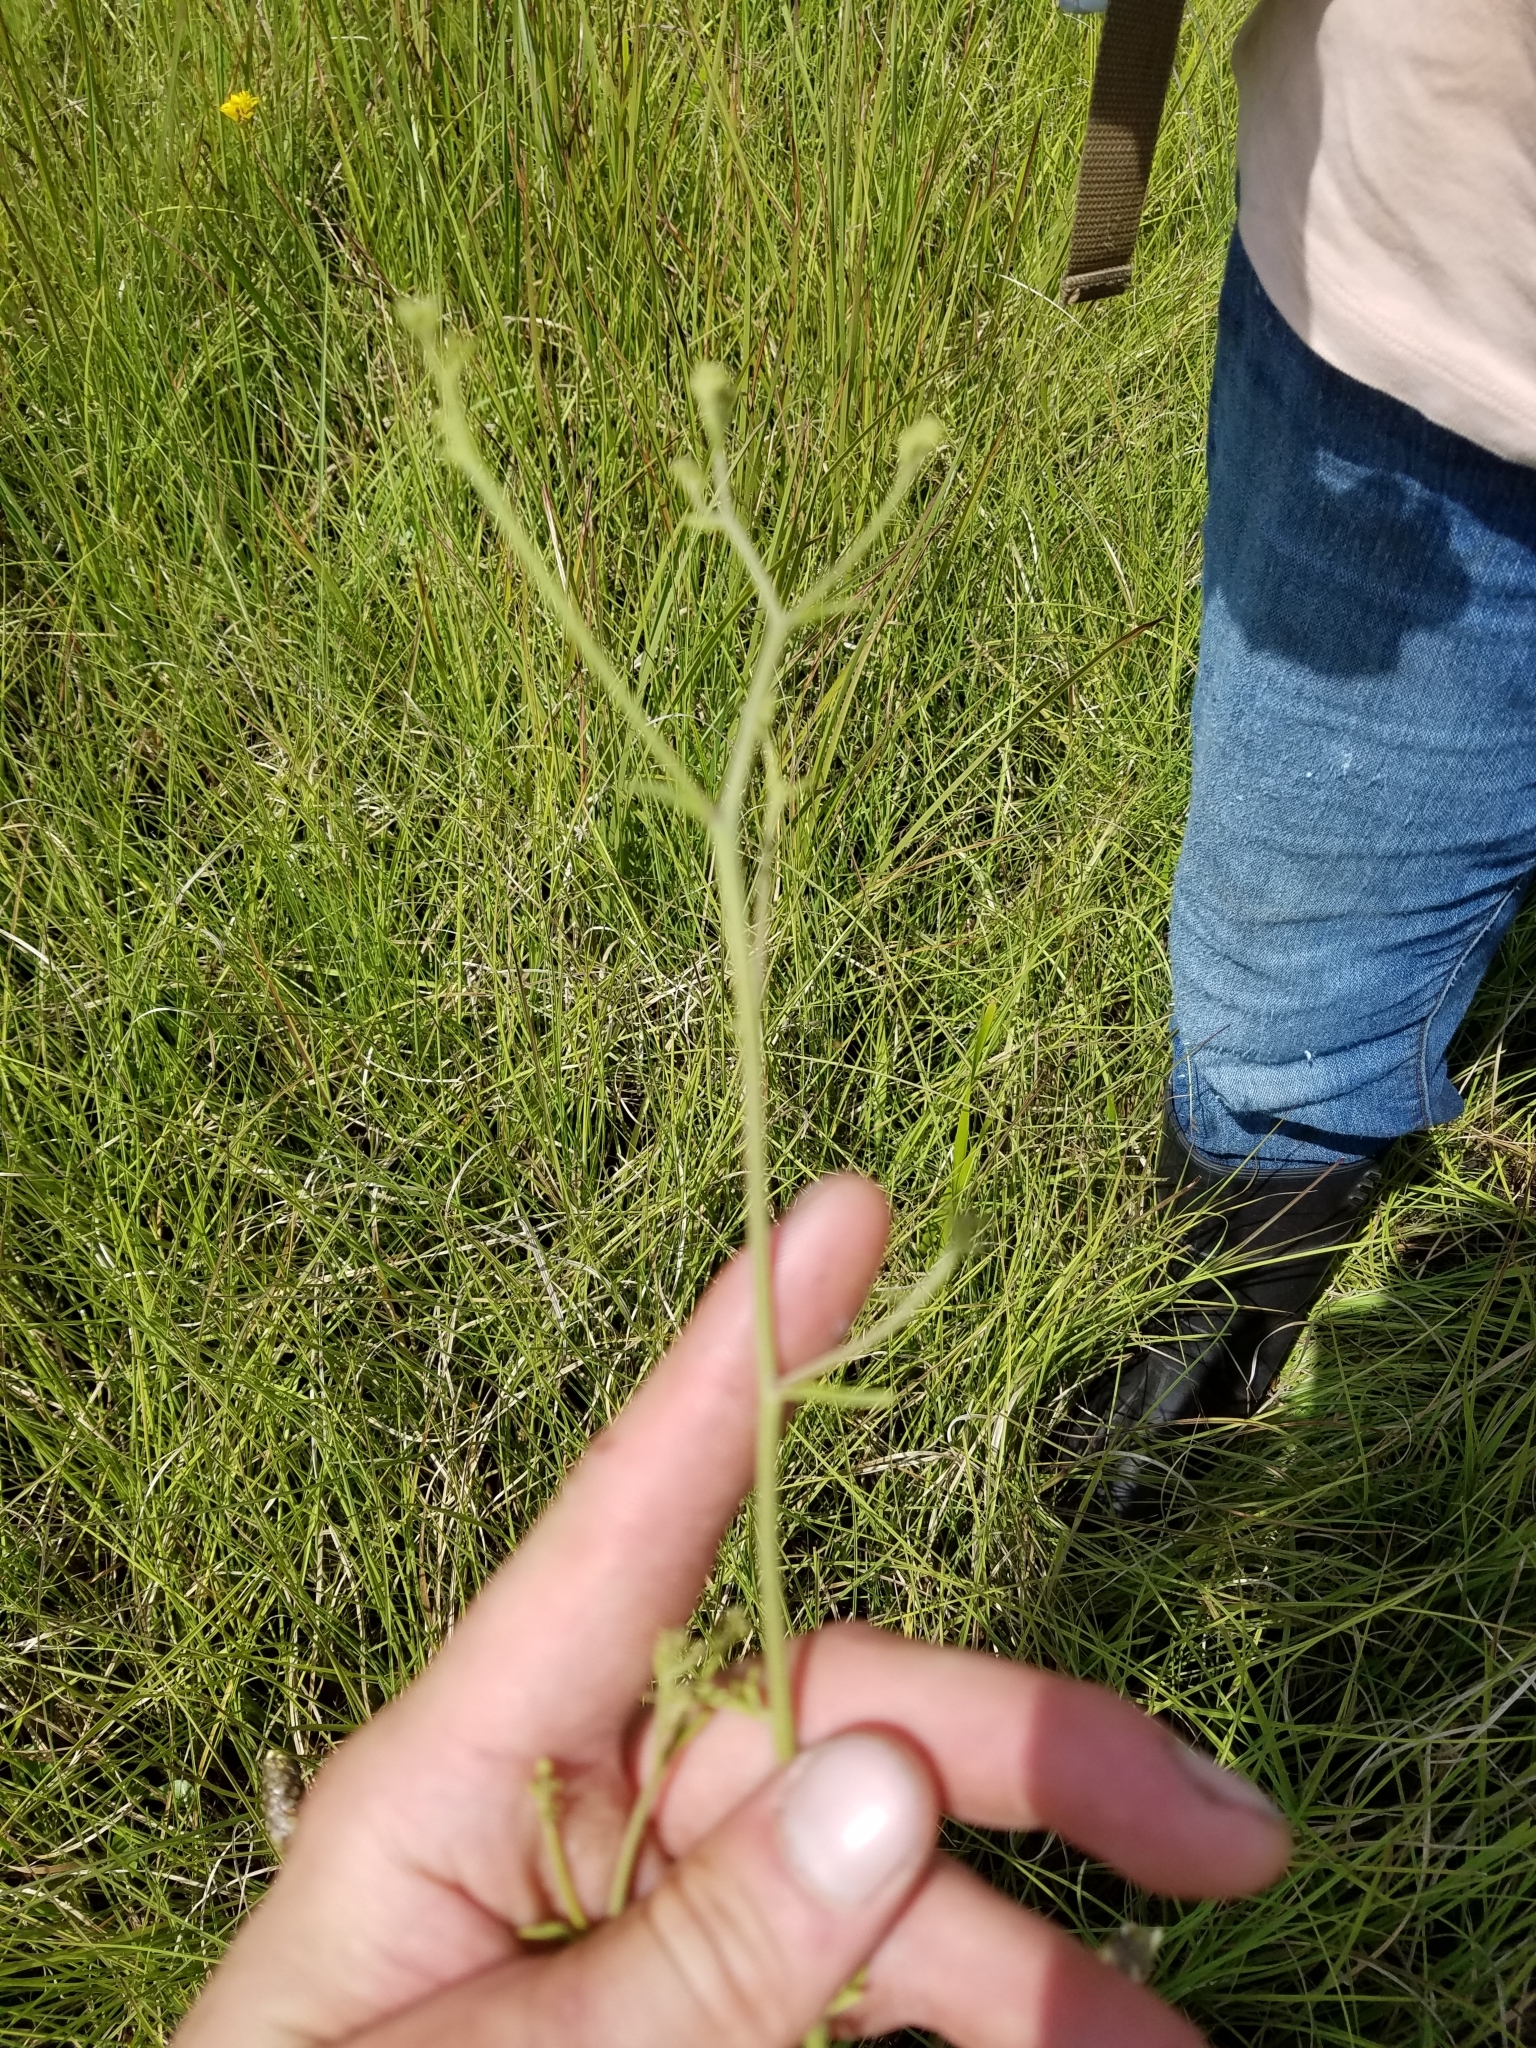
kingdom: Plantae
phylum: Tracheophyta
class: Magnoliopsida
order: Asterales
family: Asteraceae
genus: Hartwrightia
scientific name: Hartwrightia floridana
